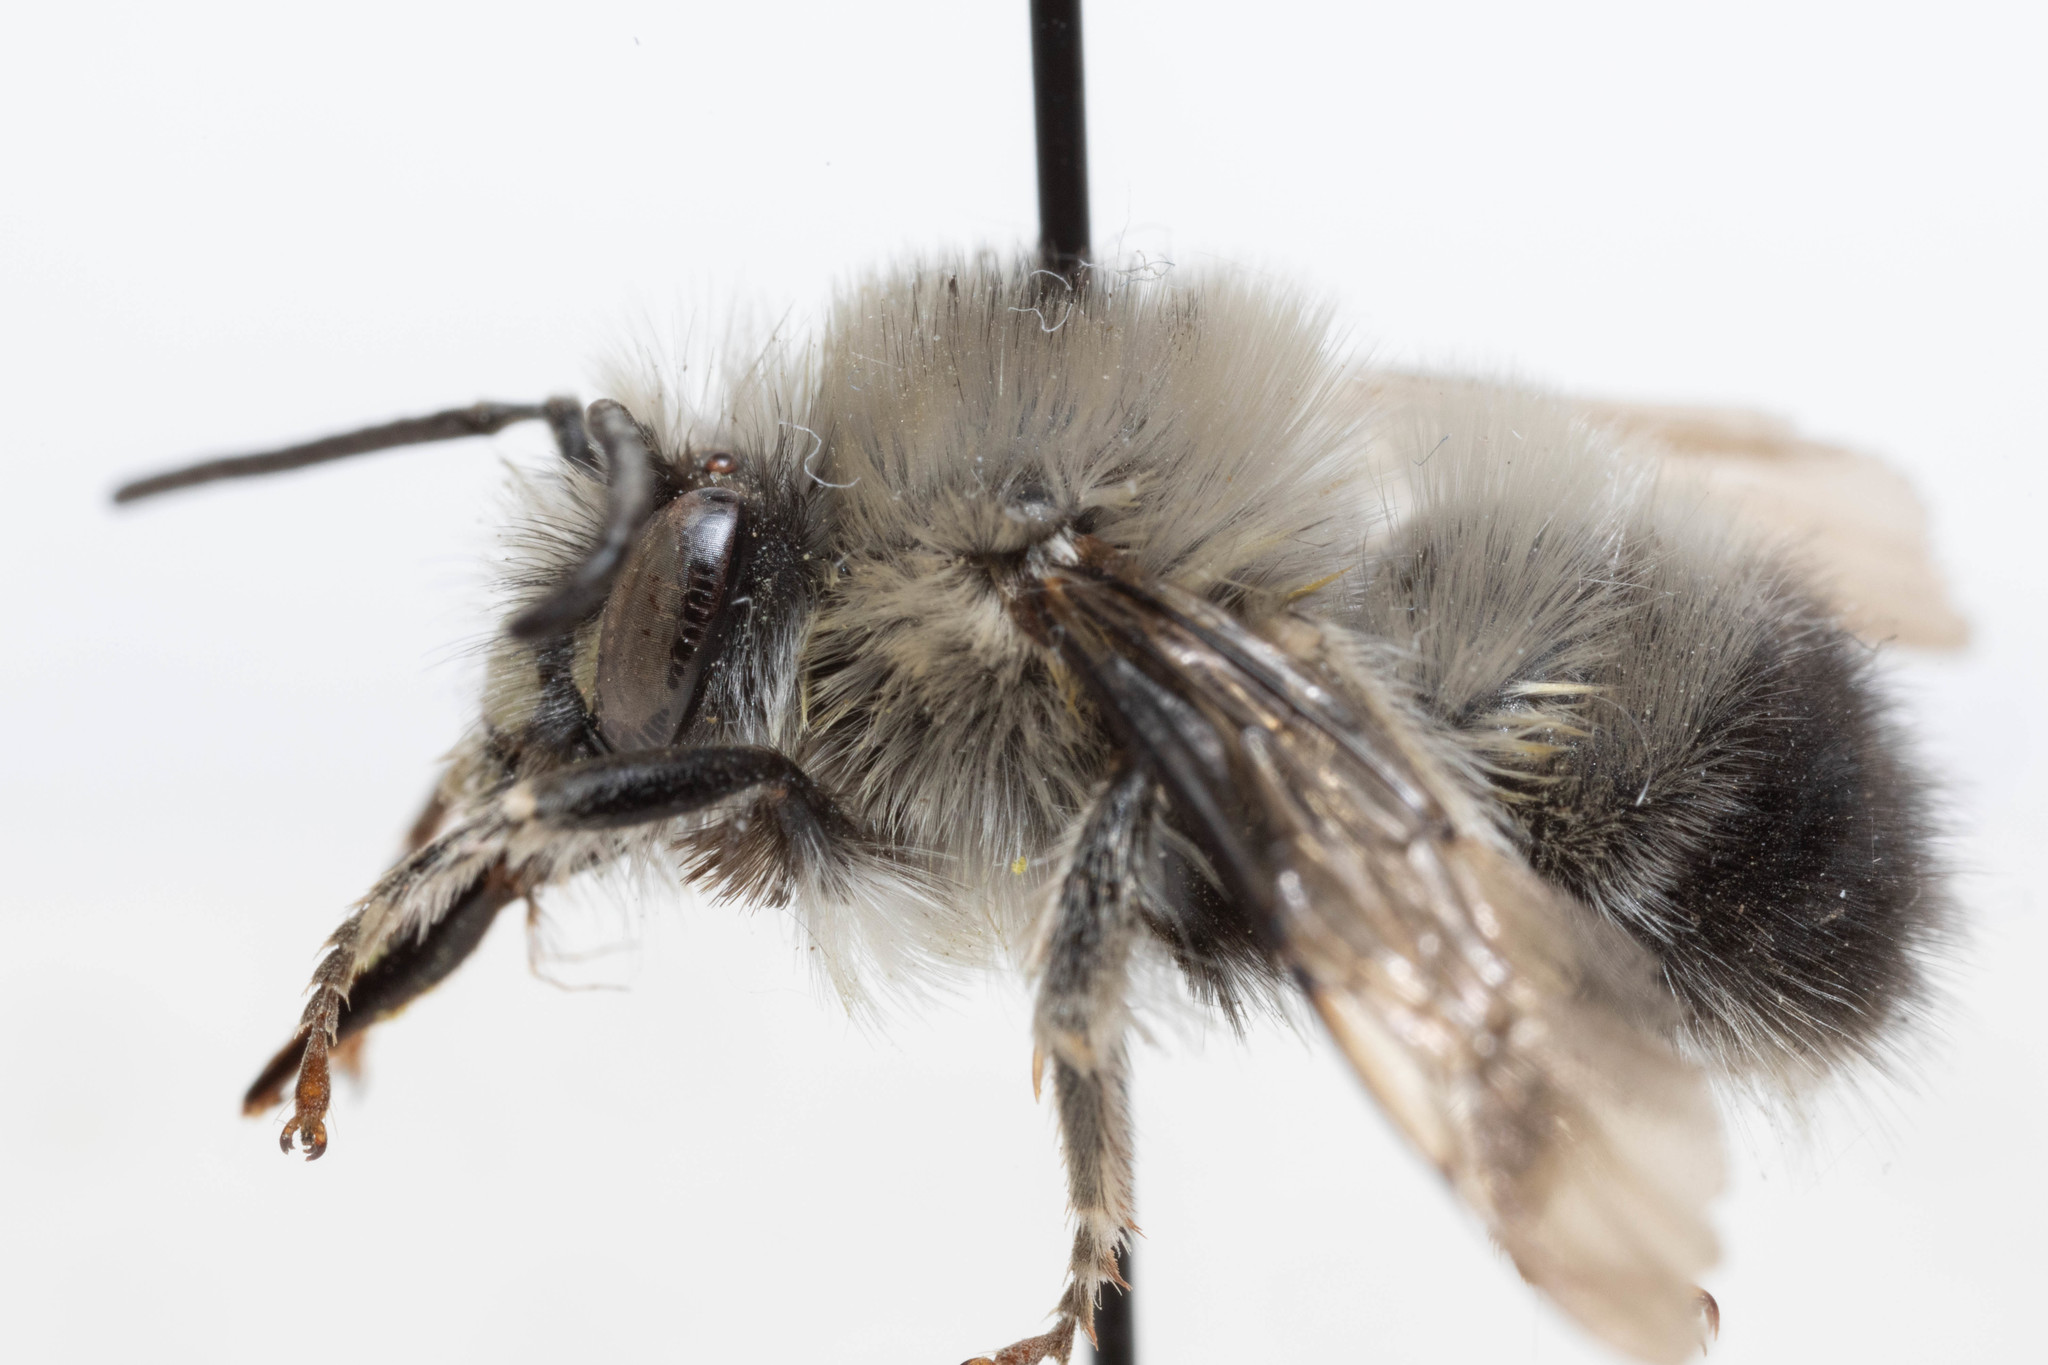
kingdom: Animalia
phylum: Arthropoda
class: Insecta
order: Hymenoptera
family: Apidae
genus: Habropoda
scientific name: Habropoda cineraria
